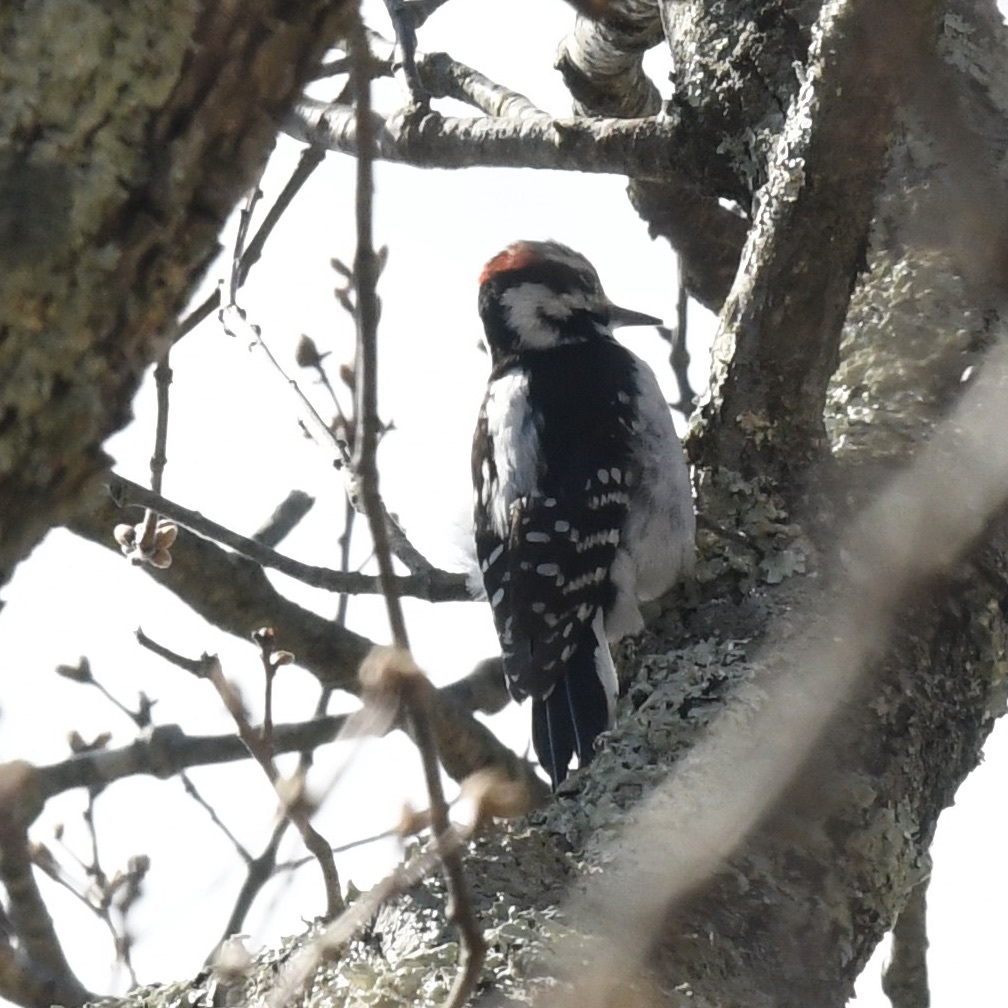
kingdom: Animalia
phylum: Chordata
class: Aves
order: Piciformes
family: Picidae
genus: Leuconotopicus
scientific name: Leuconotopicus villosus
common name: Hairy woodpecker
